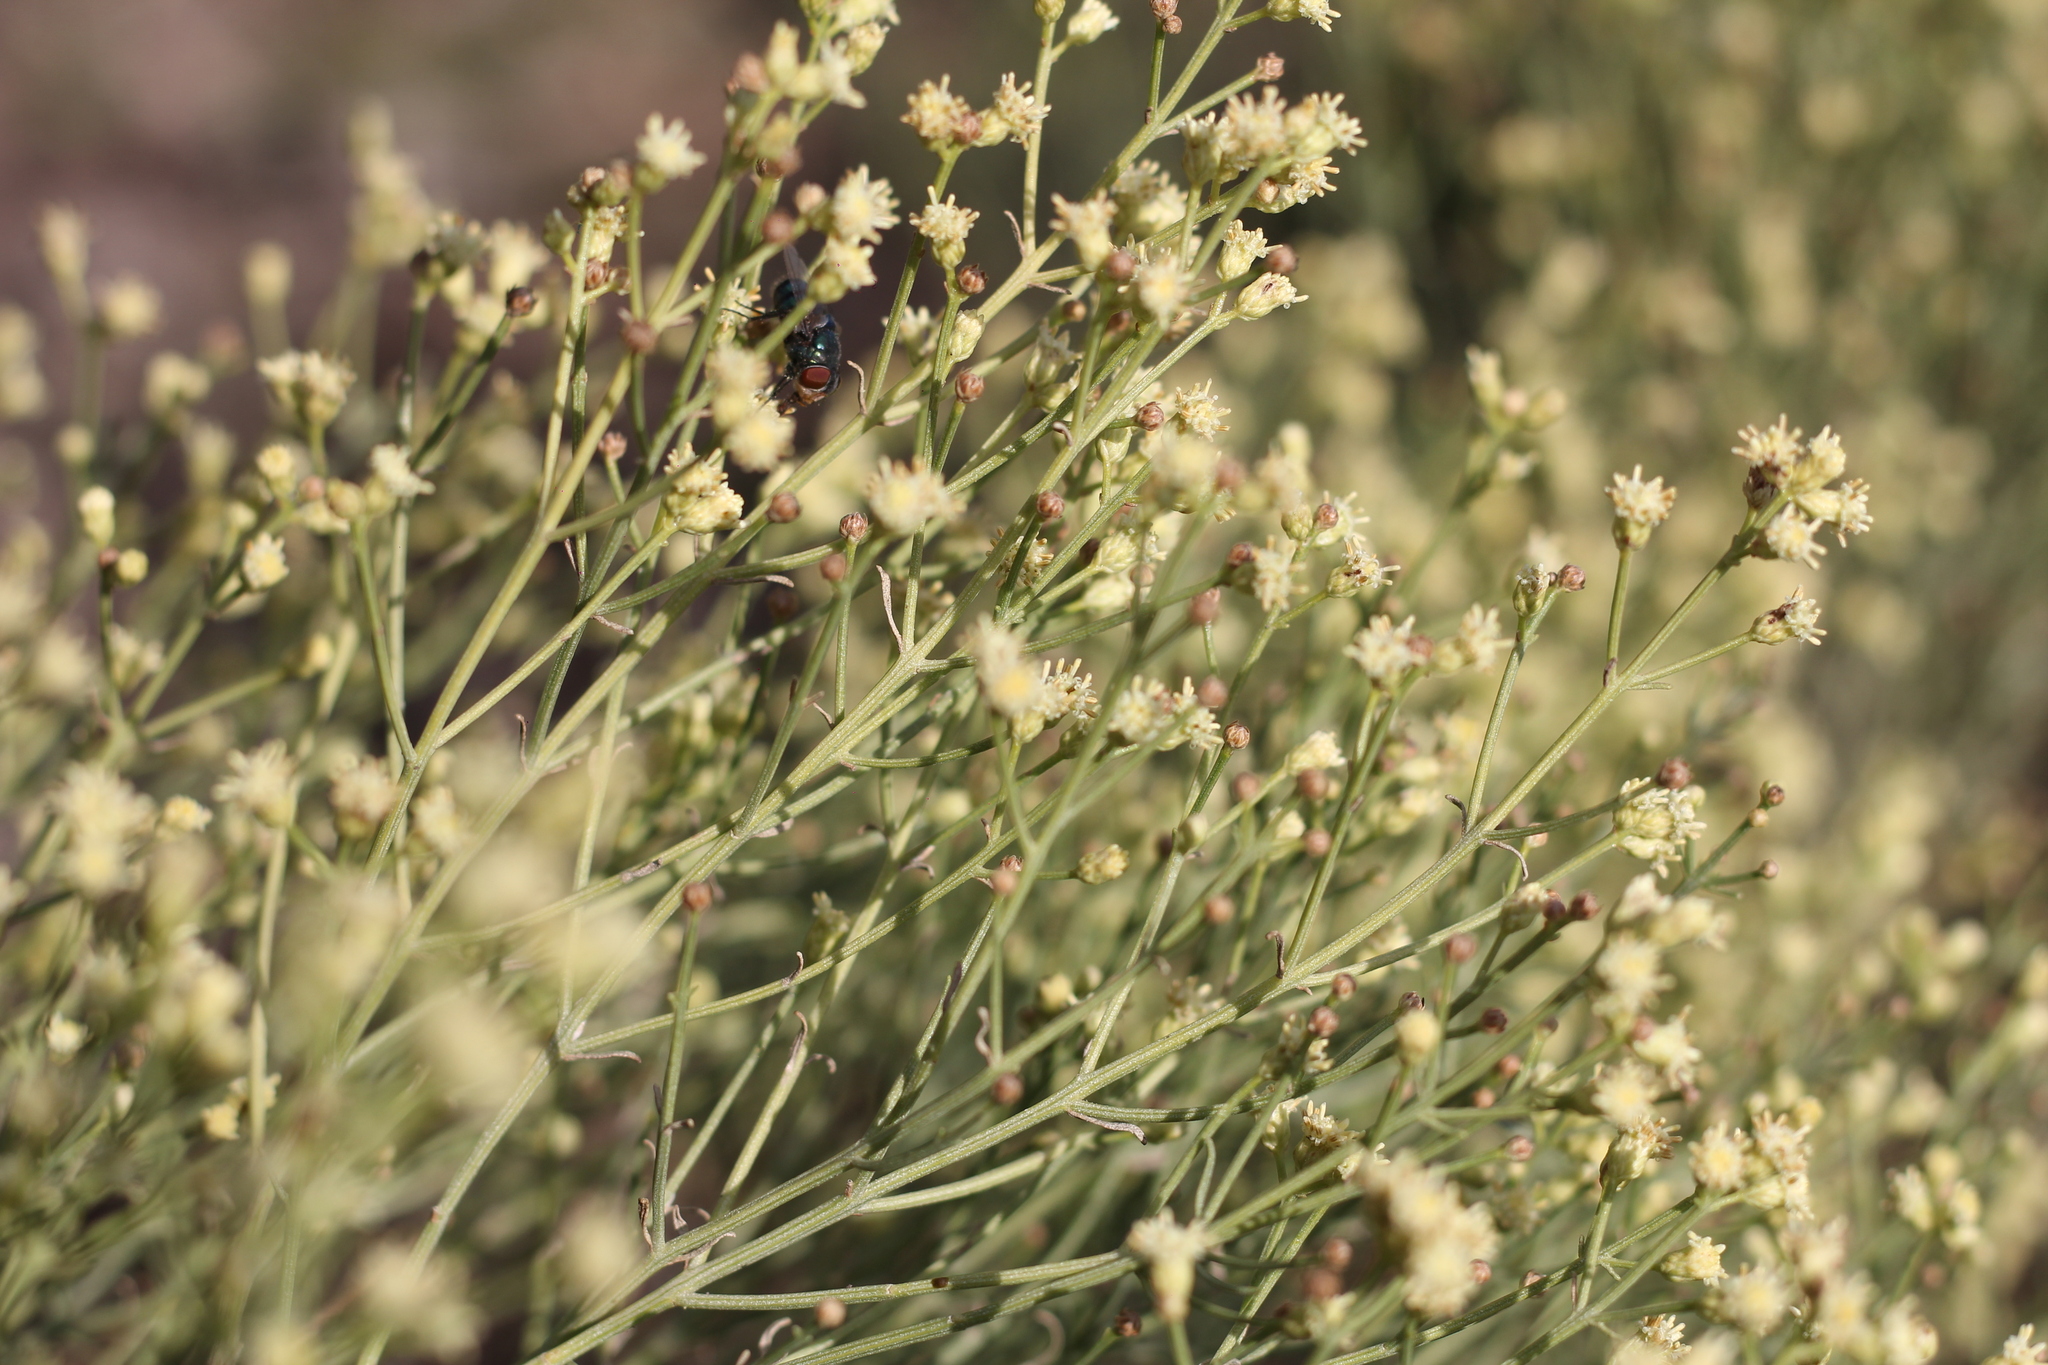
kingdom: Plantae
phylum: Tracheophyta
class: Magnoliopsida
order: Asterales
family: Asteraceae
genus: Baccharis
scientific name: Baccharis notosergila
